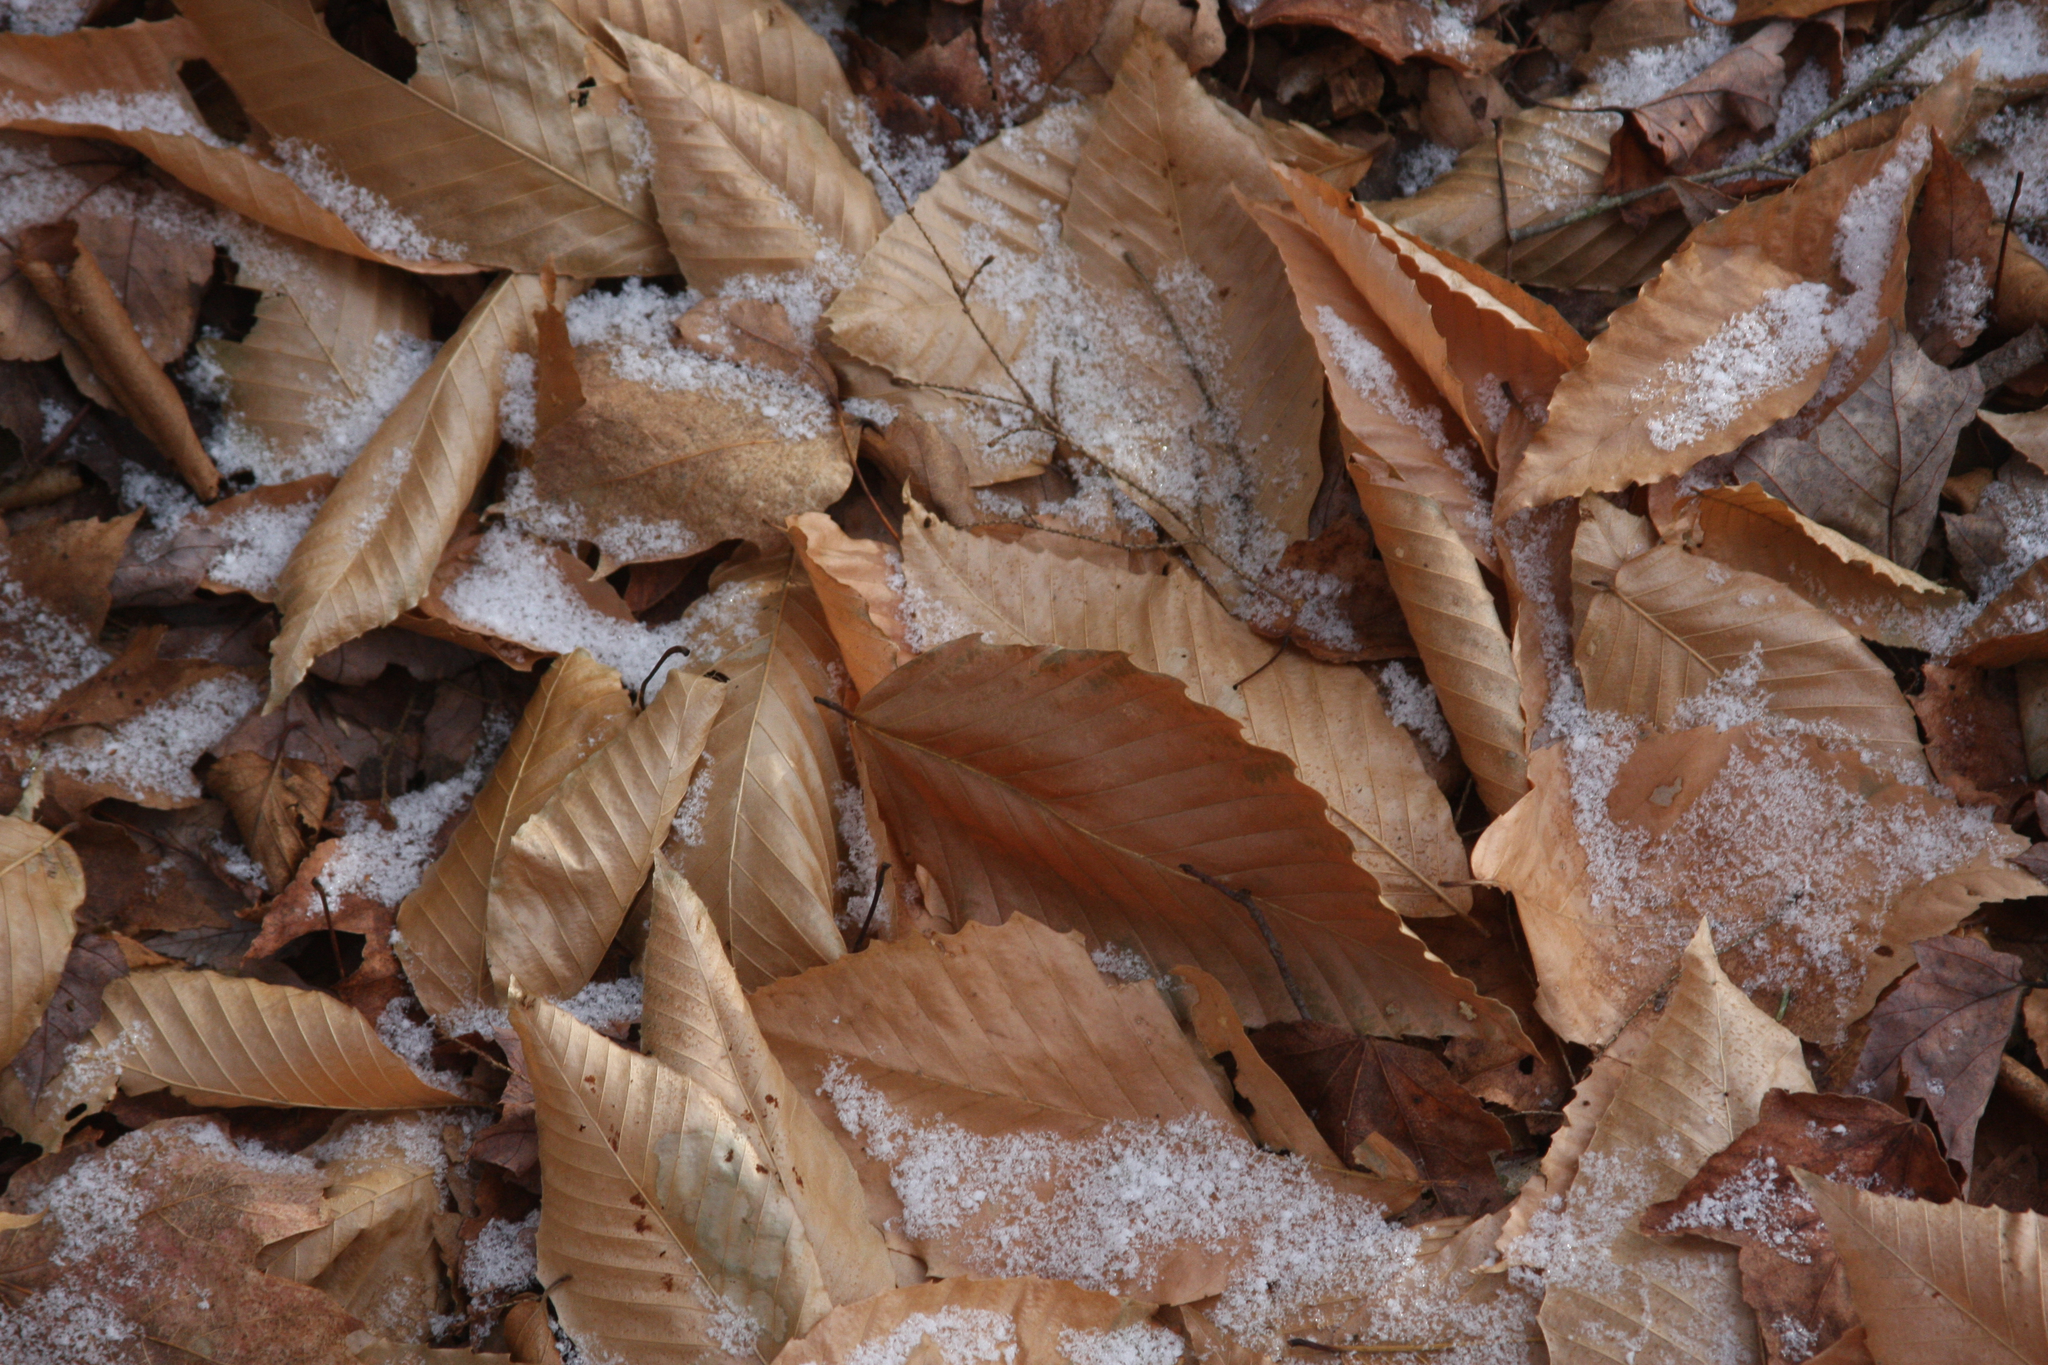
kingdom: Plantae
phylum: Tracheophyta
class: Magnoliopsida
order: Fagales
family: Fagaceae
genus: Fagus
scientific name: Fagus grandifolia
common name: American beech
